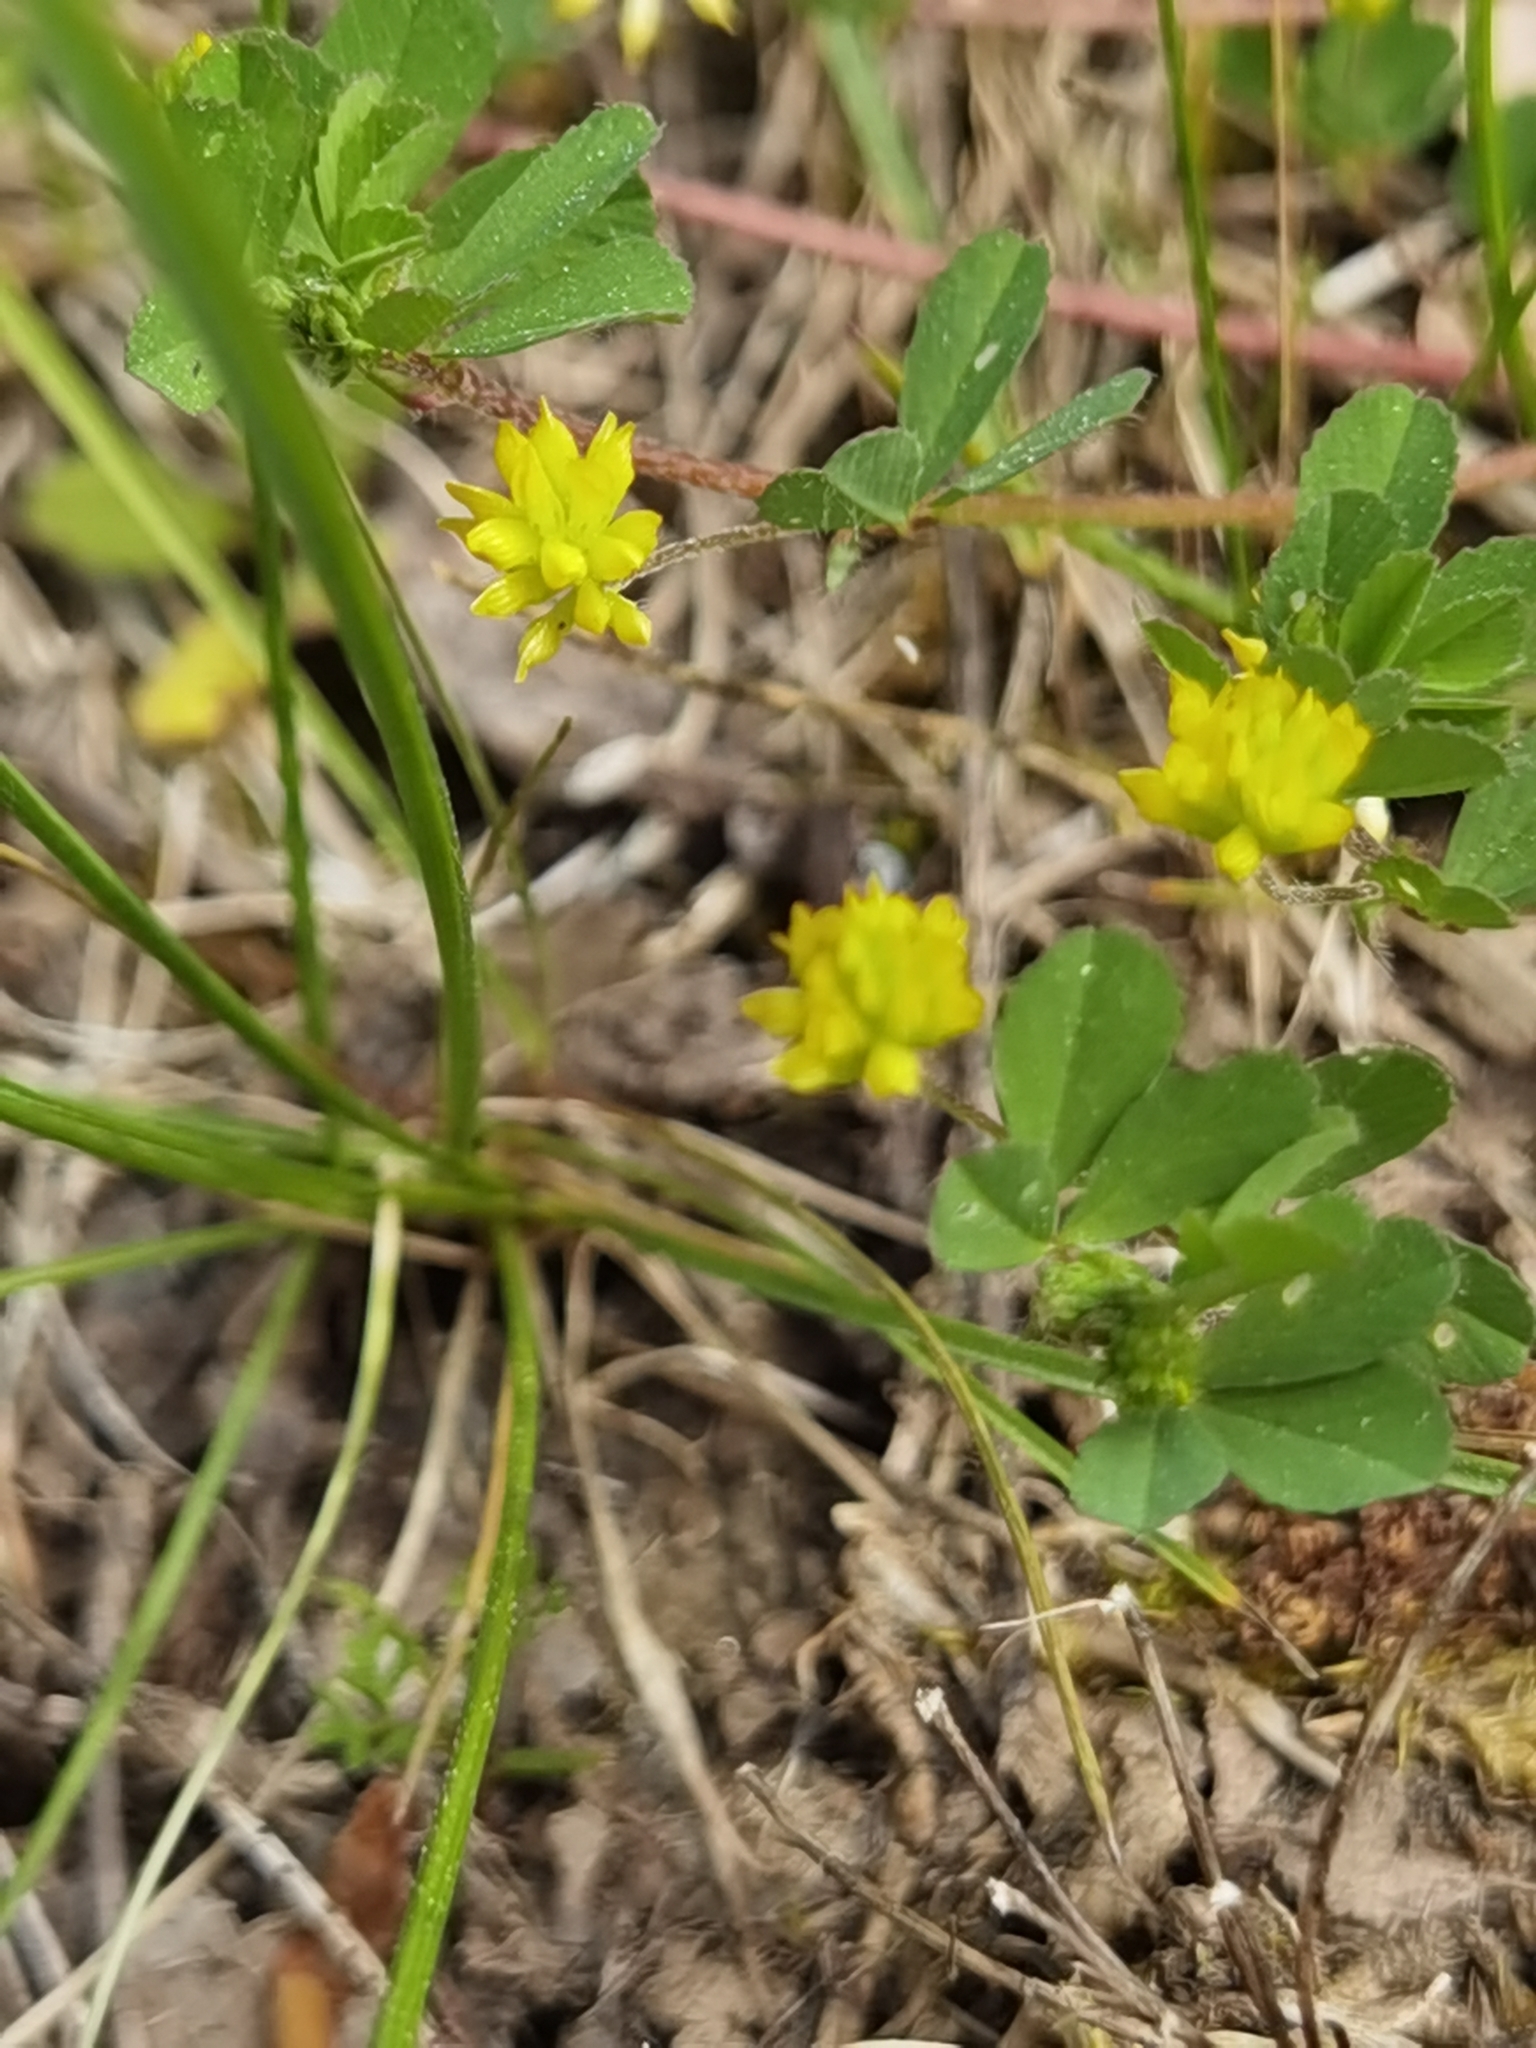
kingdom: Plantae
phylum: Tracheophyta
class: Magnoliopsida
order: Fabales
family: Fabaceae
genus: Trifolium
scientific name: Trifolium campestre
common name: Field clover
